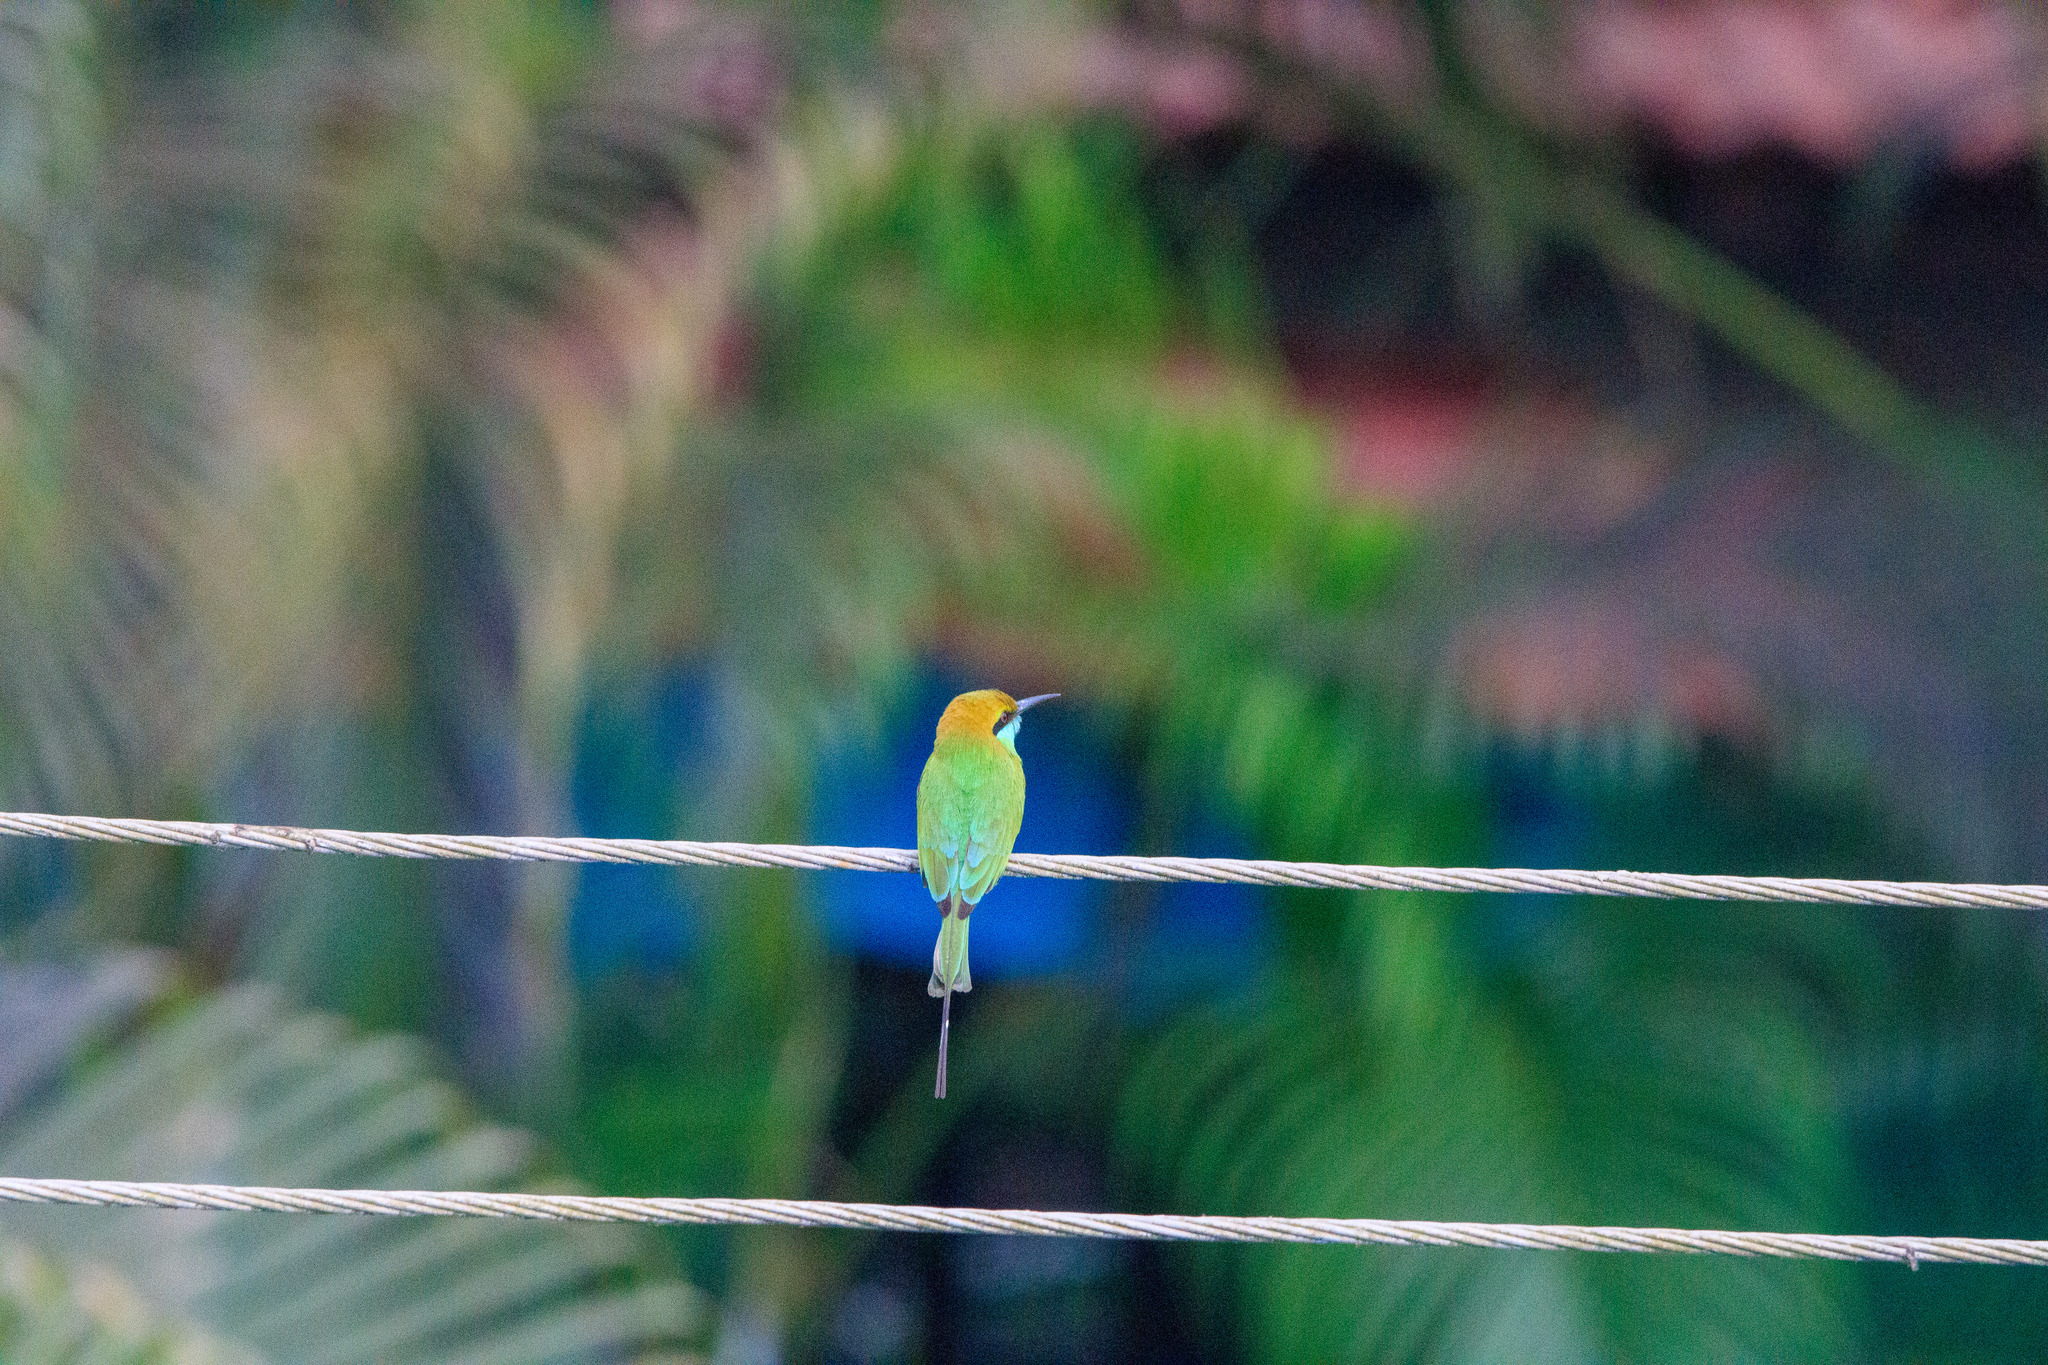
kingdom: Animalia
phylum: Chordata
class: Aves
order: Coraciiformes
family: Meropidae
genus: Merops
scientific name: Merops orientalis
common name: Green bee-eater
